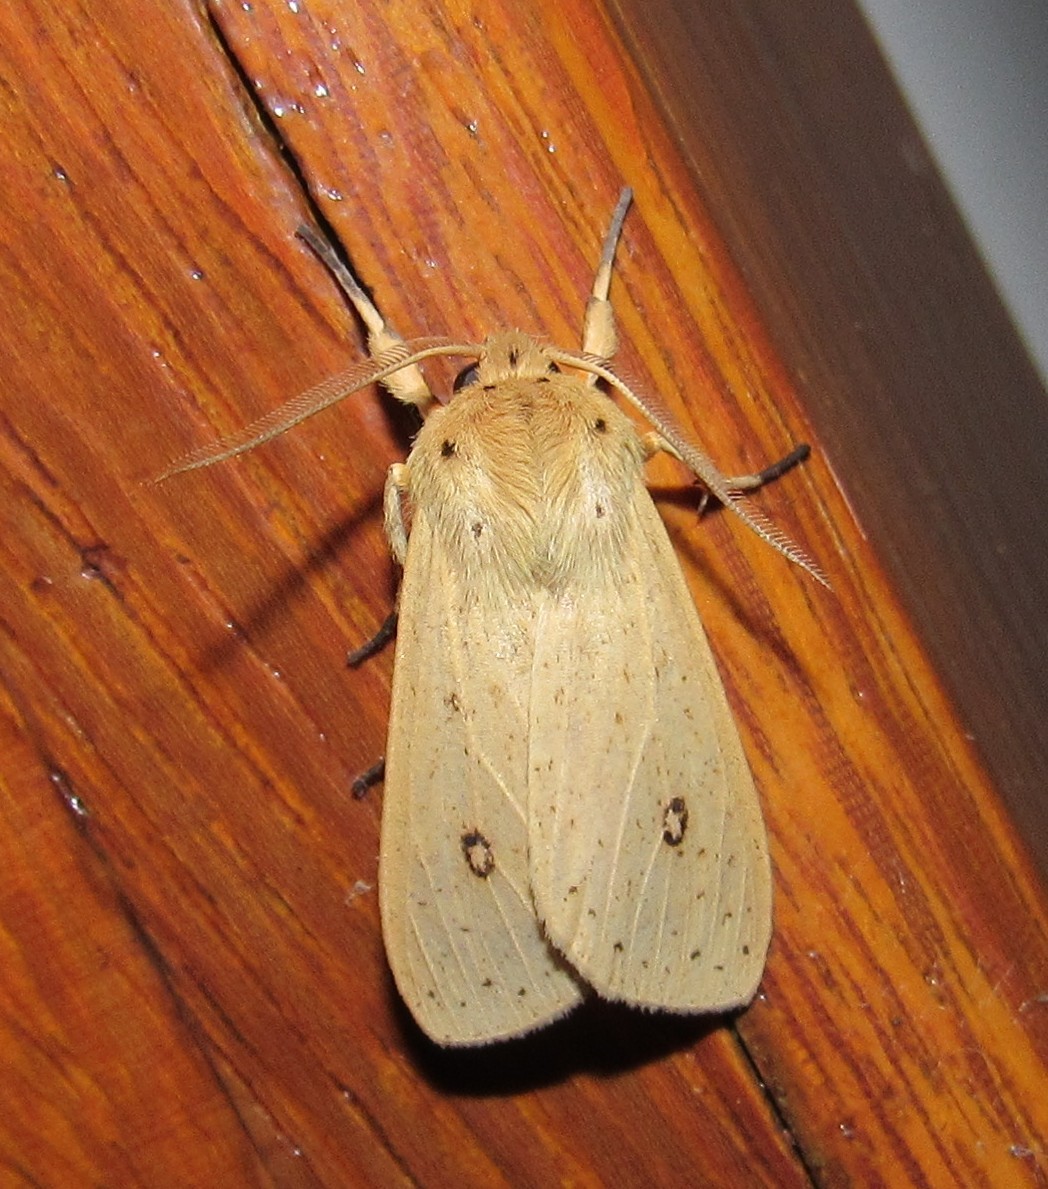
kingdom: Animalia
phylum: Arthropoda
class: Insecta
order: Lepidoptera
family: Erebidae
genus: Leucanopsis
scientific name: Leucanopsis leucanina
